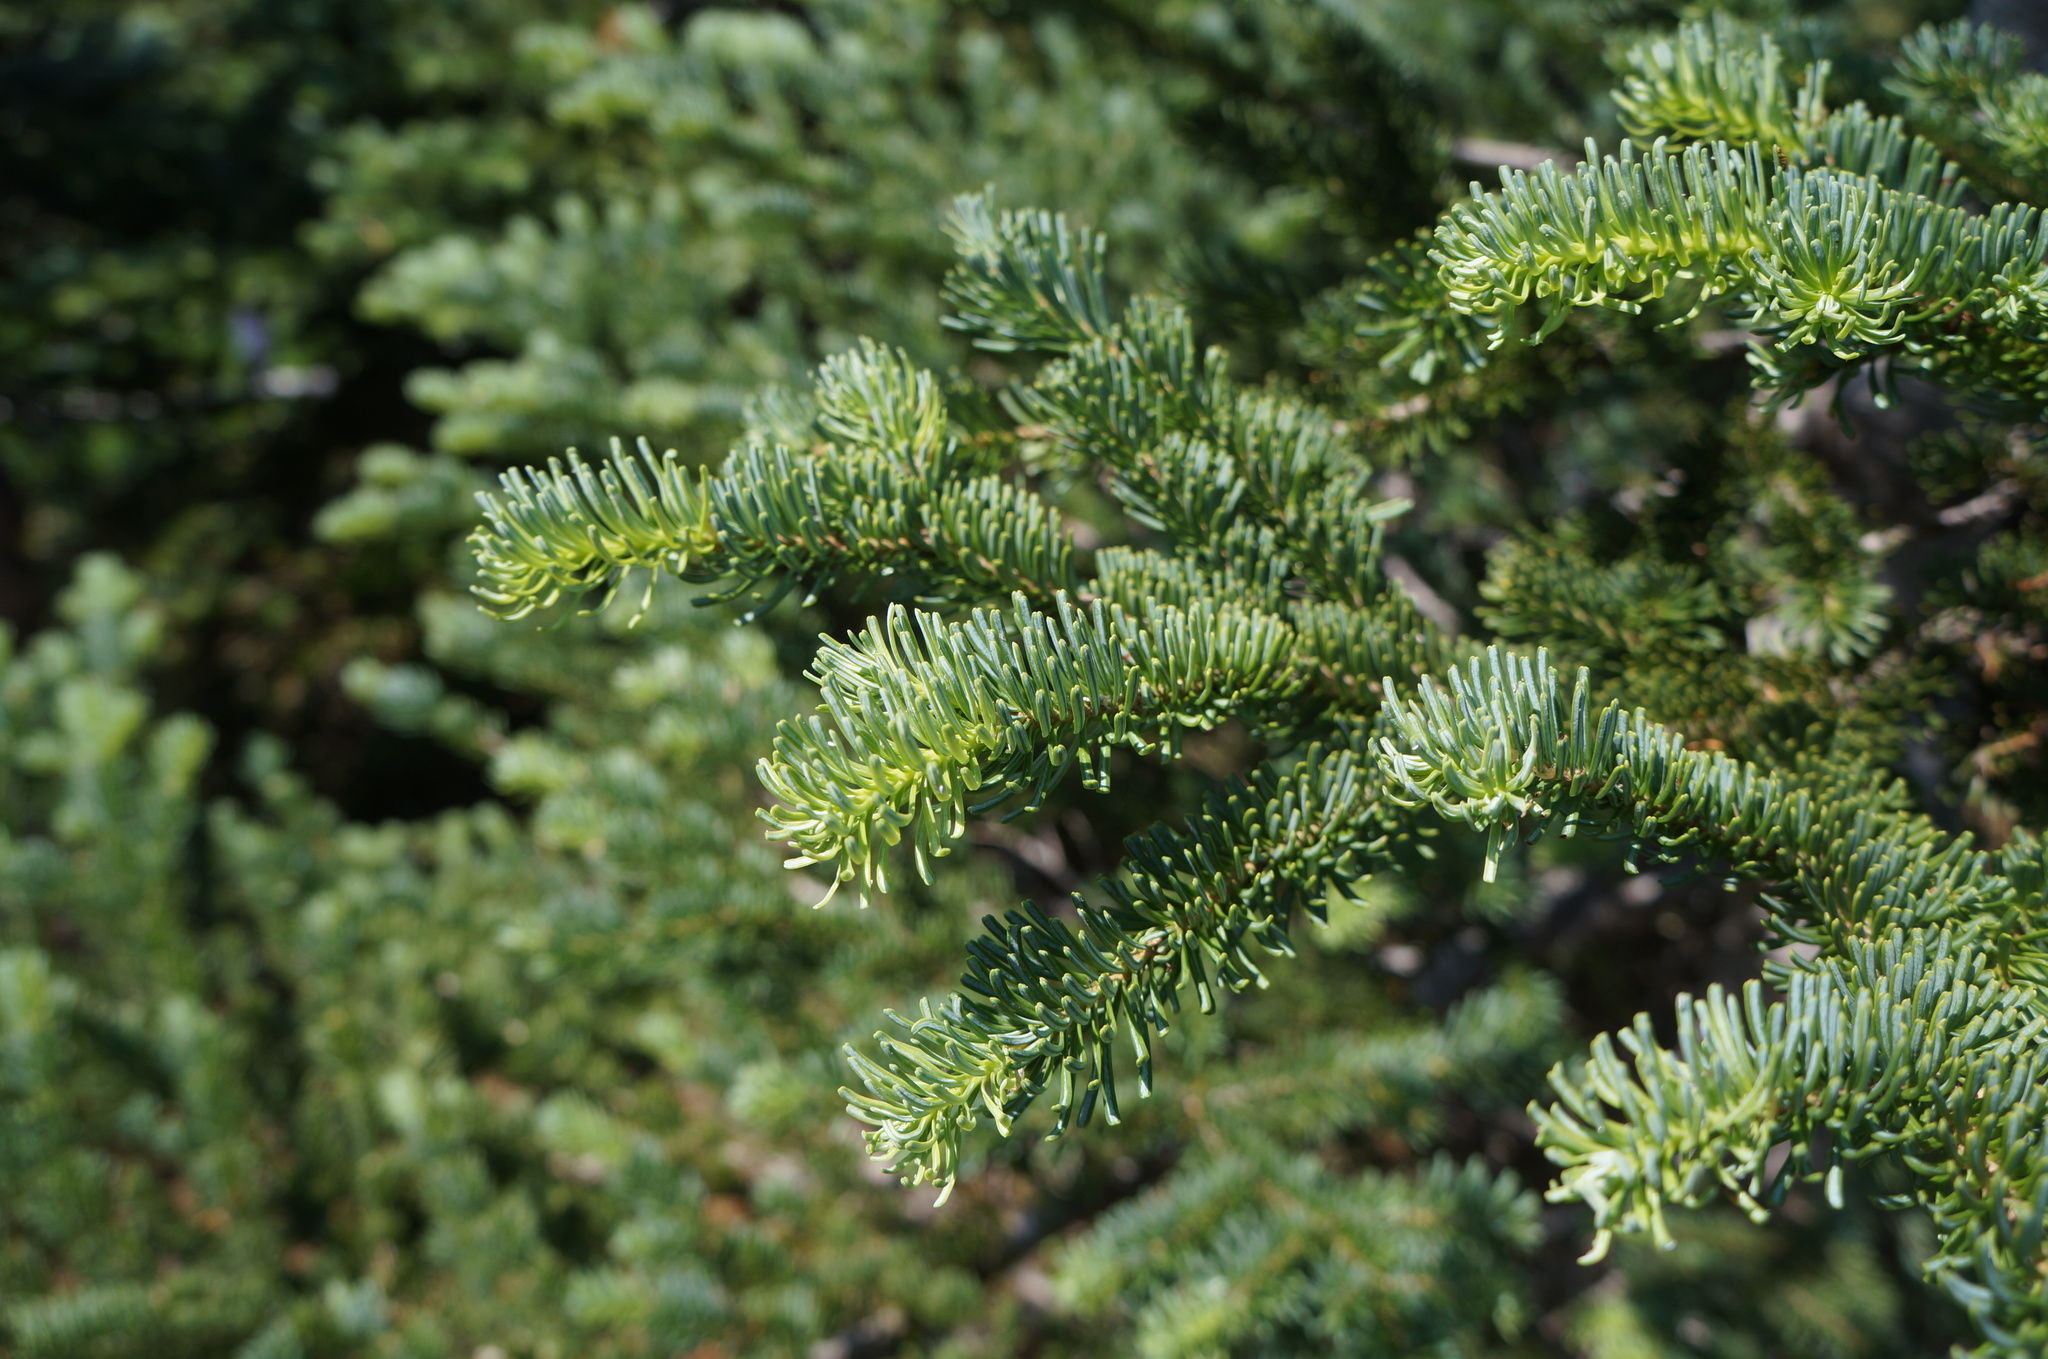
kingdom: Plantae
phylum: Tracheophyta
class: Pinopsida
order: Pinales
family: Pinaceae
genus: Abies
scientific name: Abies lasiocarpa
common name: Subalpine fir
